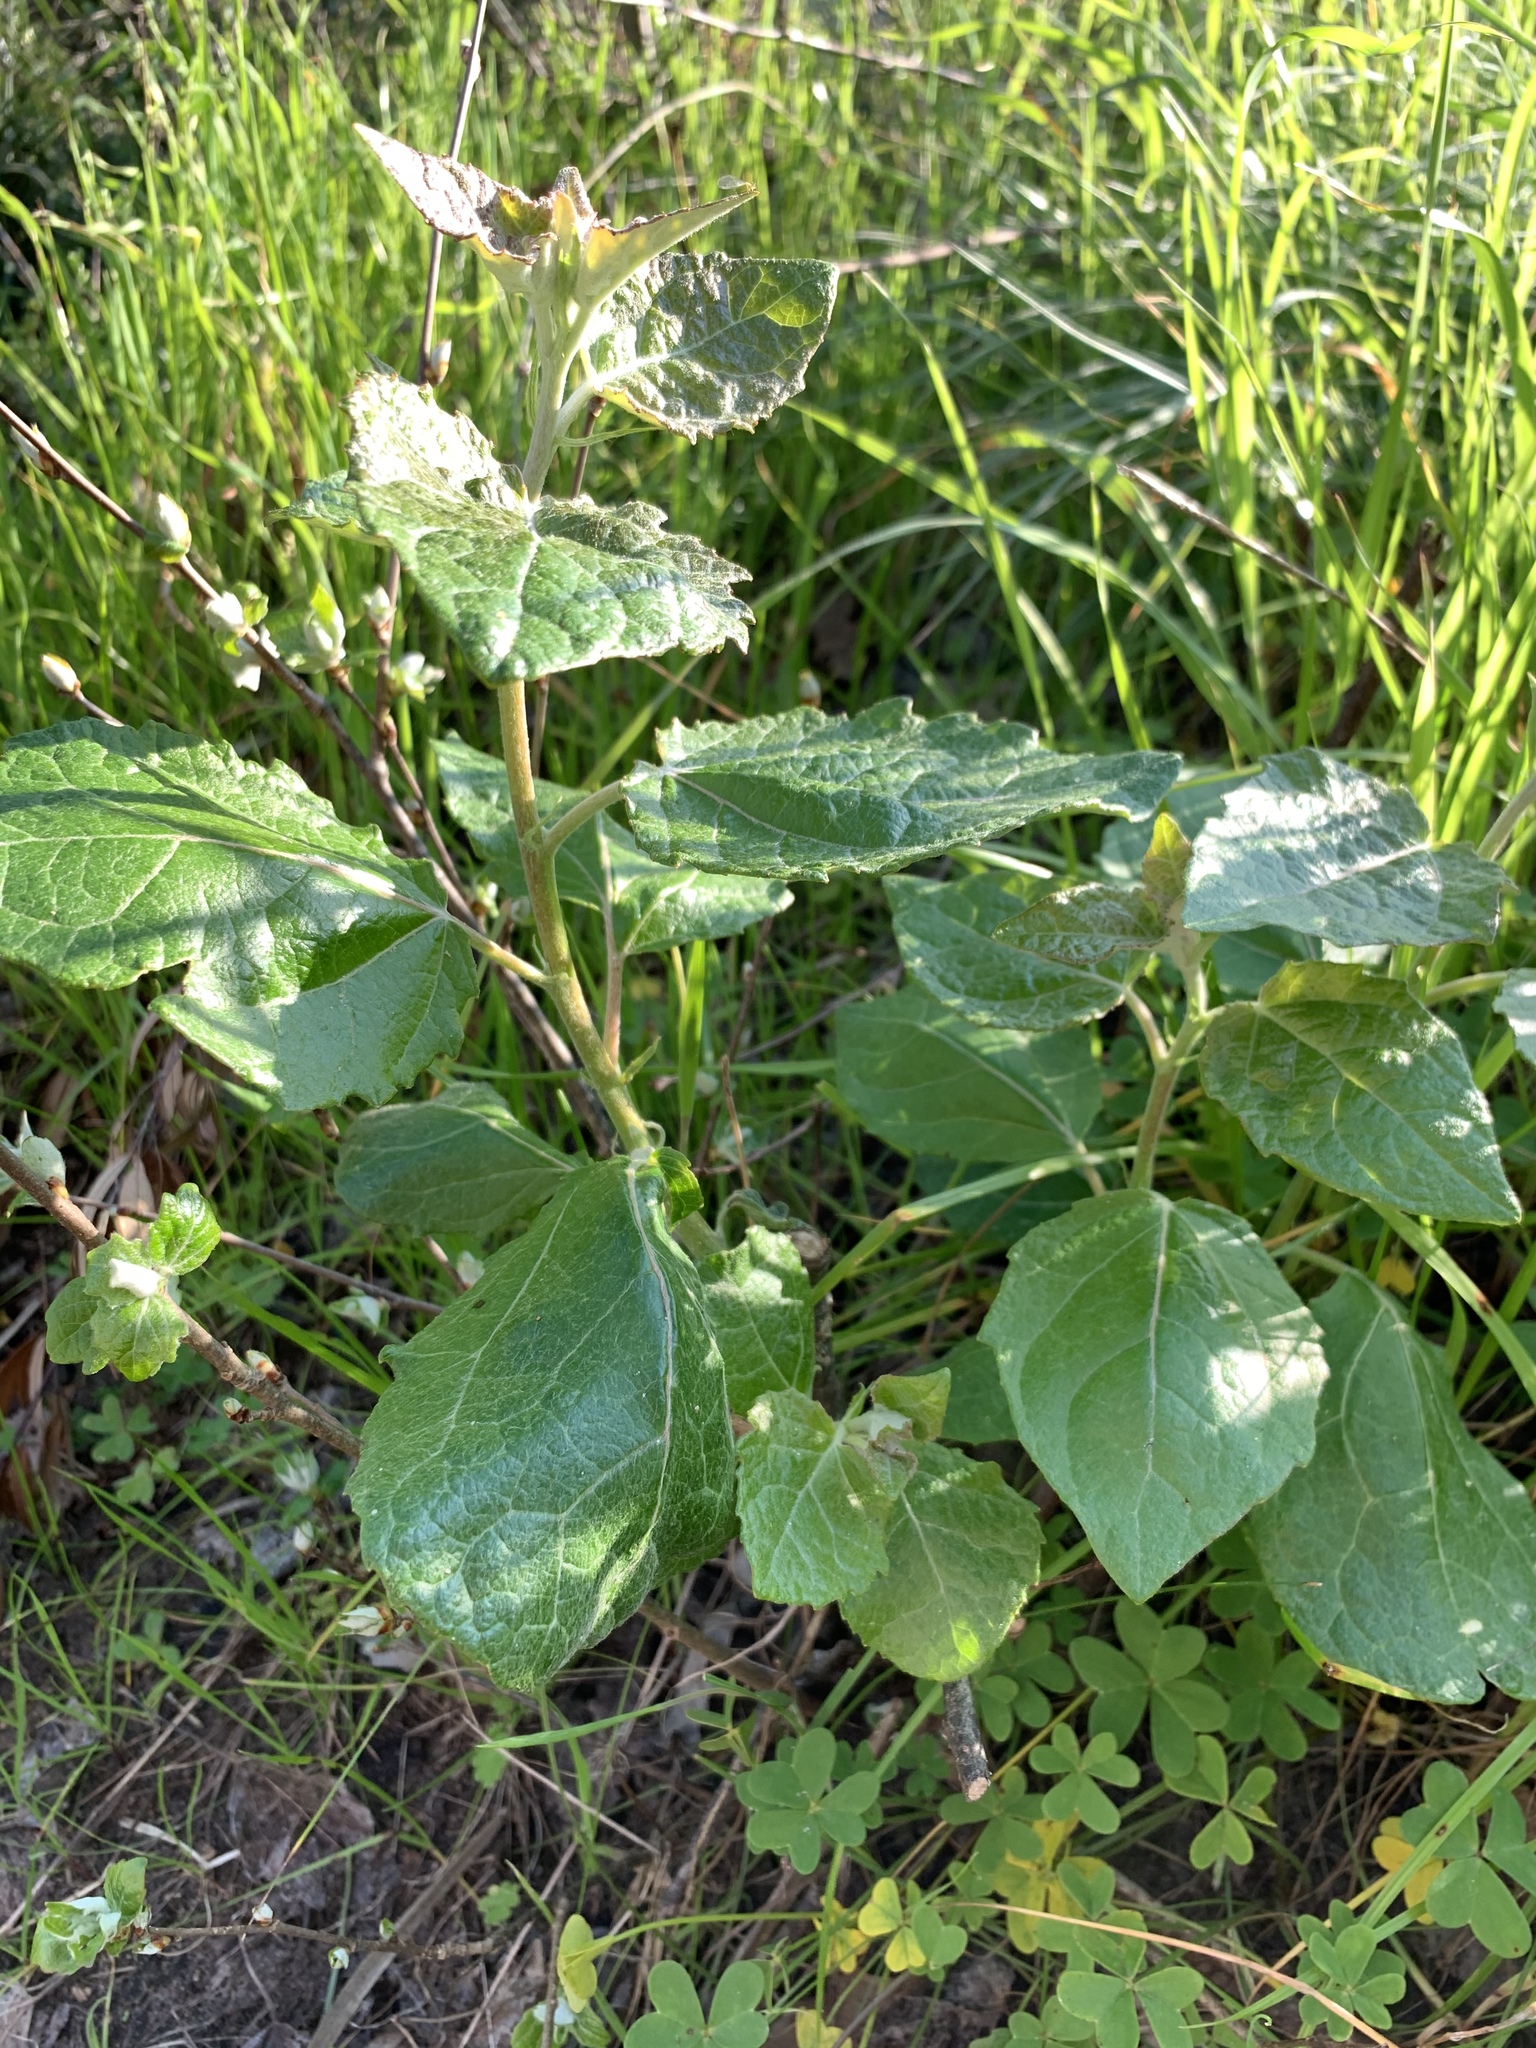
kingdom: Plantae
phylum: Tracheophyta
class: Magnoliopsida
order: Malpighiales
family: Salicaceae
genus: Populus
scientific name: Populus canescens
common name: Gray poplar
